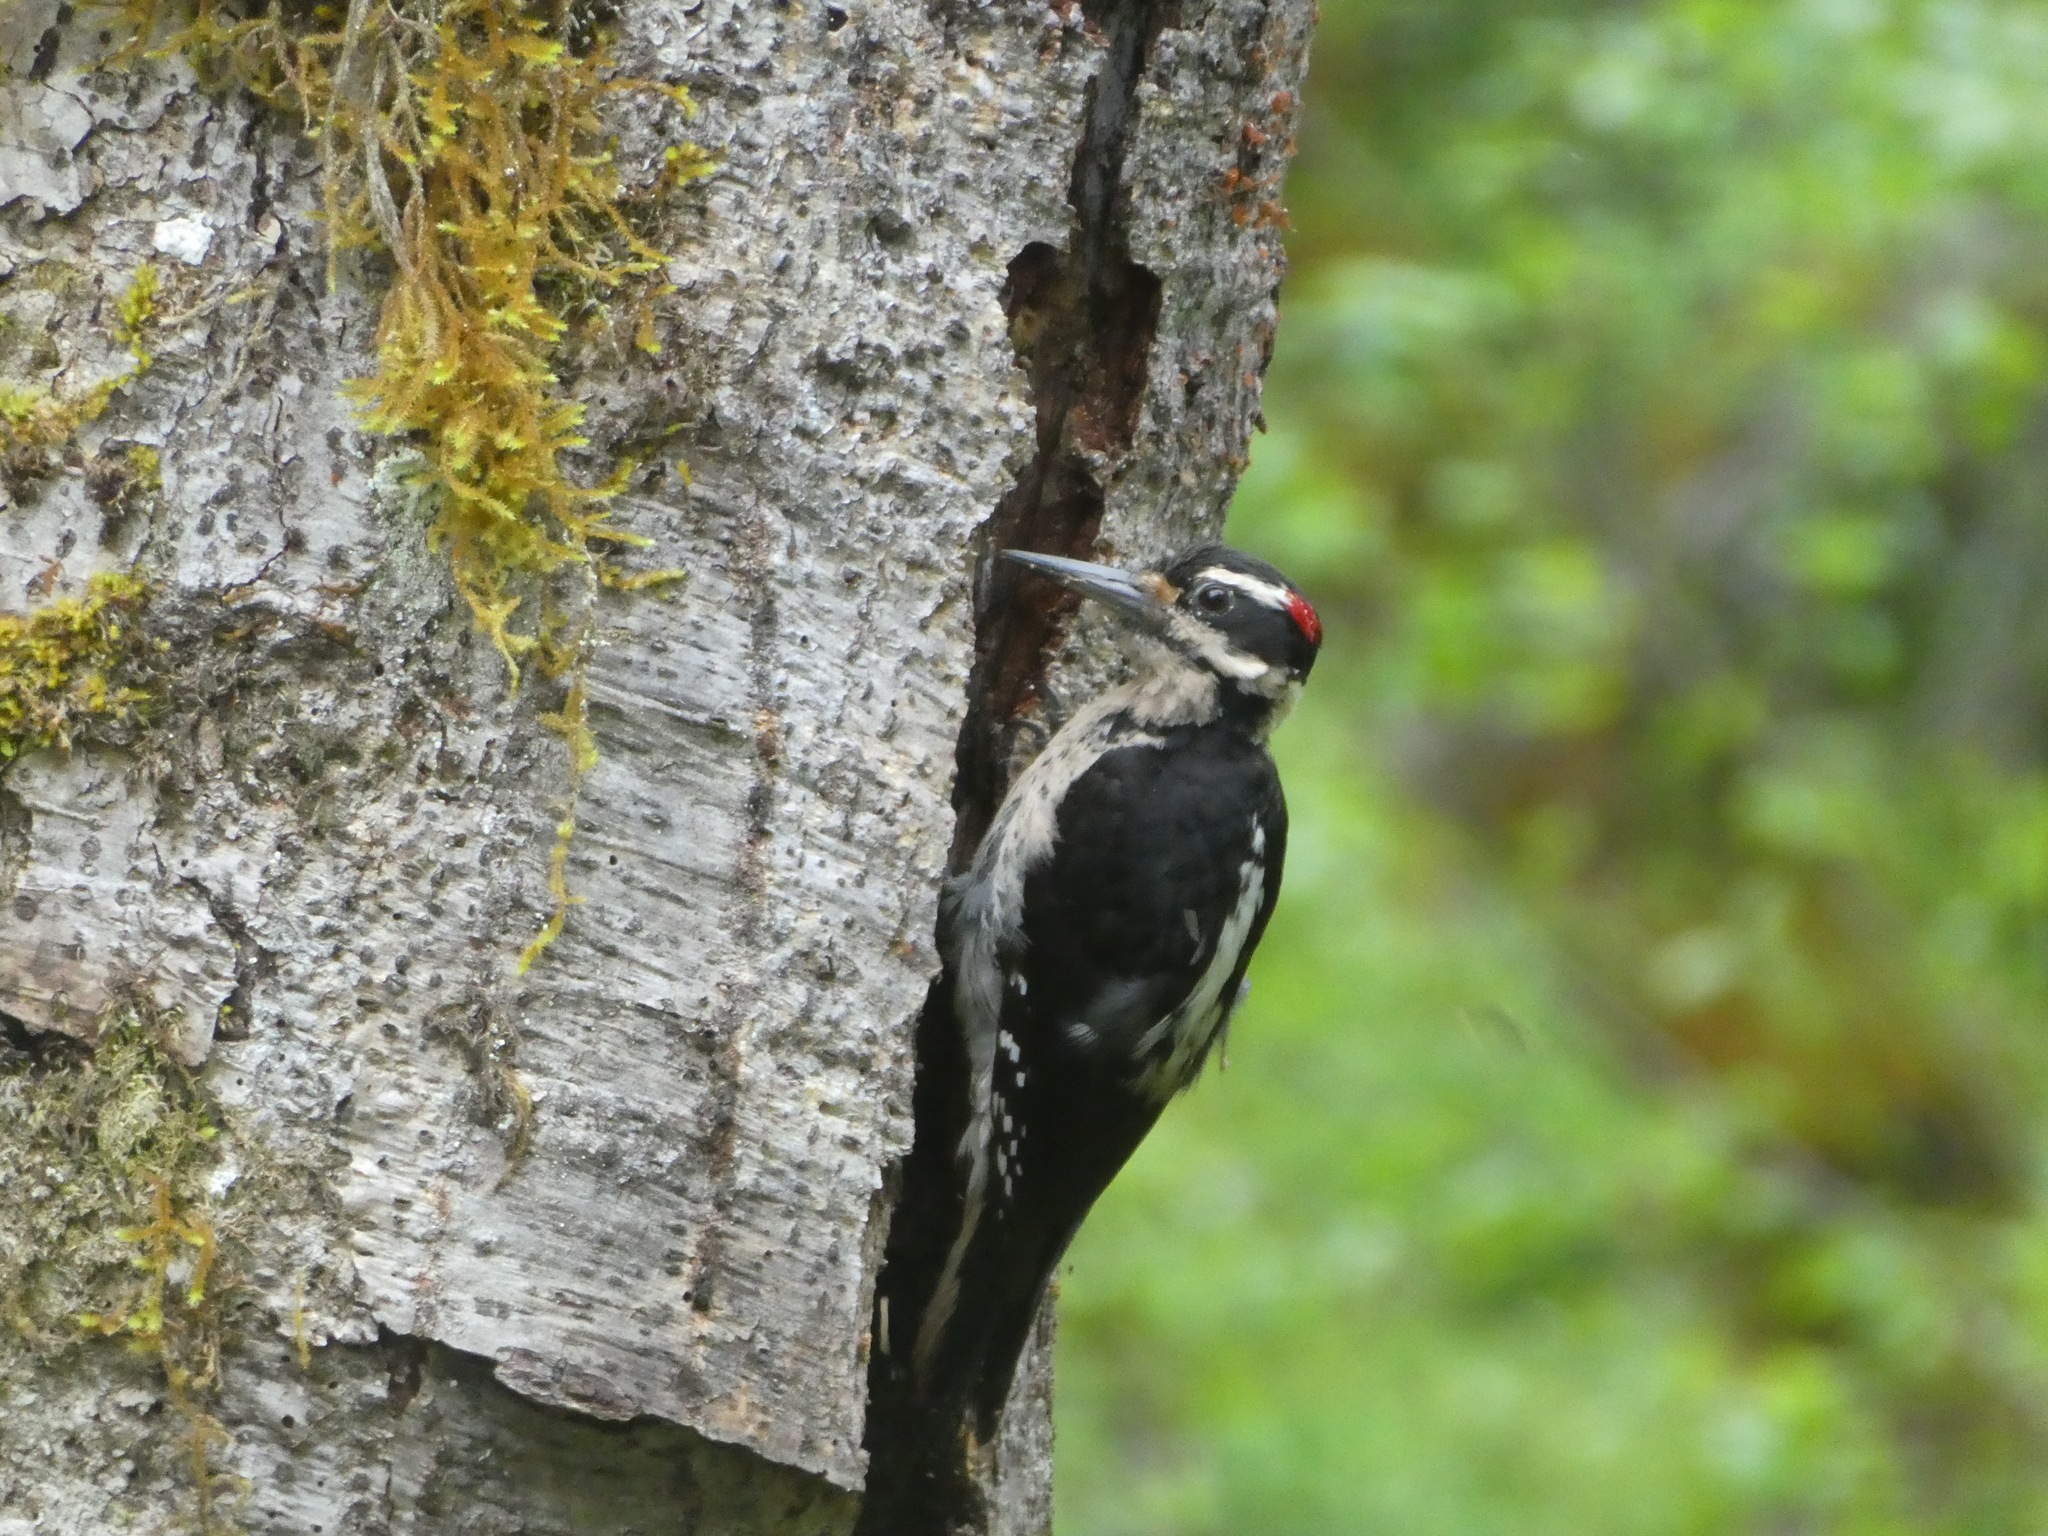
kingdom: Animalia
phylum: Chordata
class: Aves
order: Piciformes
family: Picidae
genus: Leuconotopicus
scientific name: Leuconotopicus villosus
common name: Hairy woodpecker
